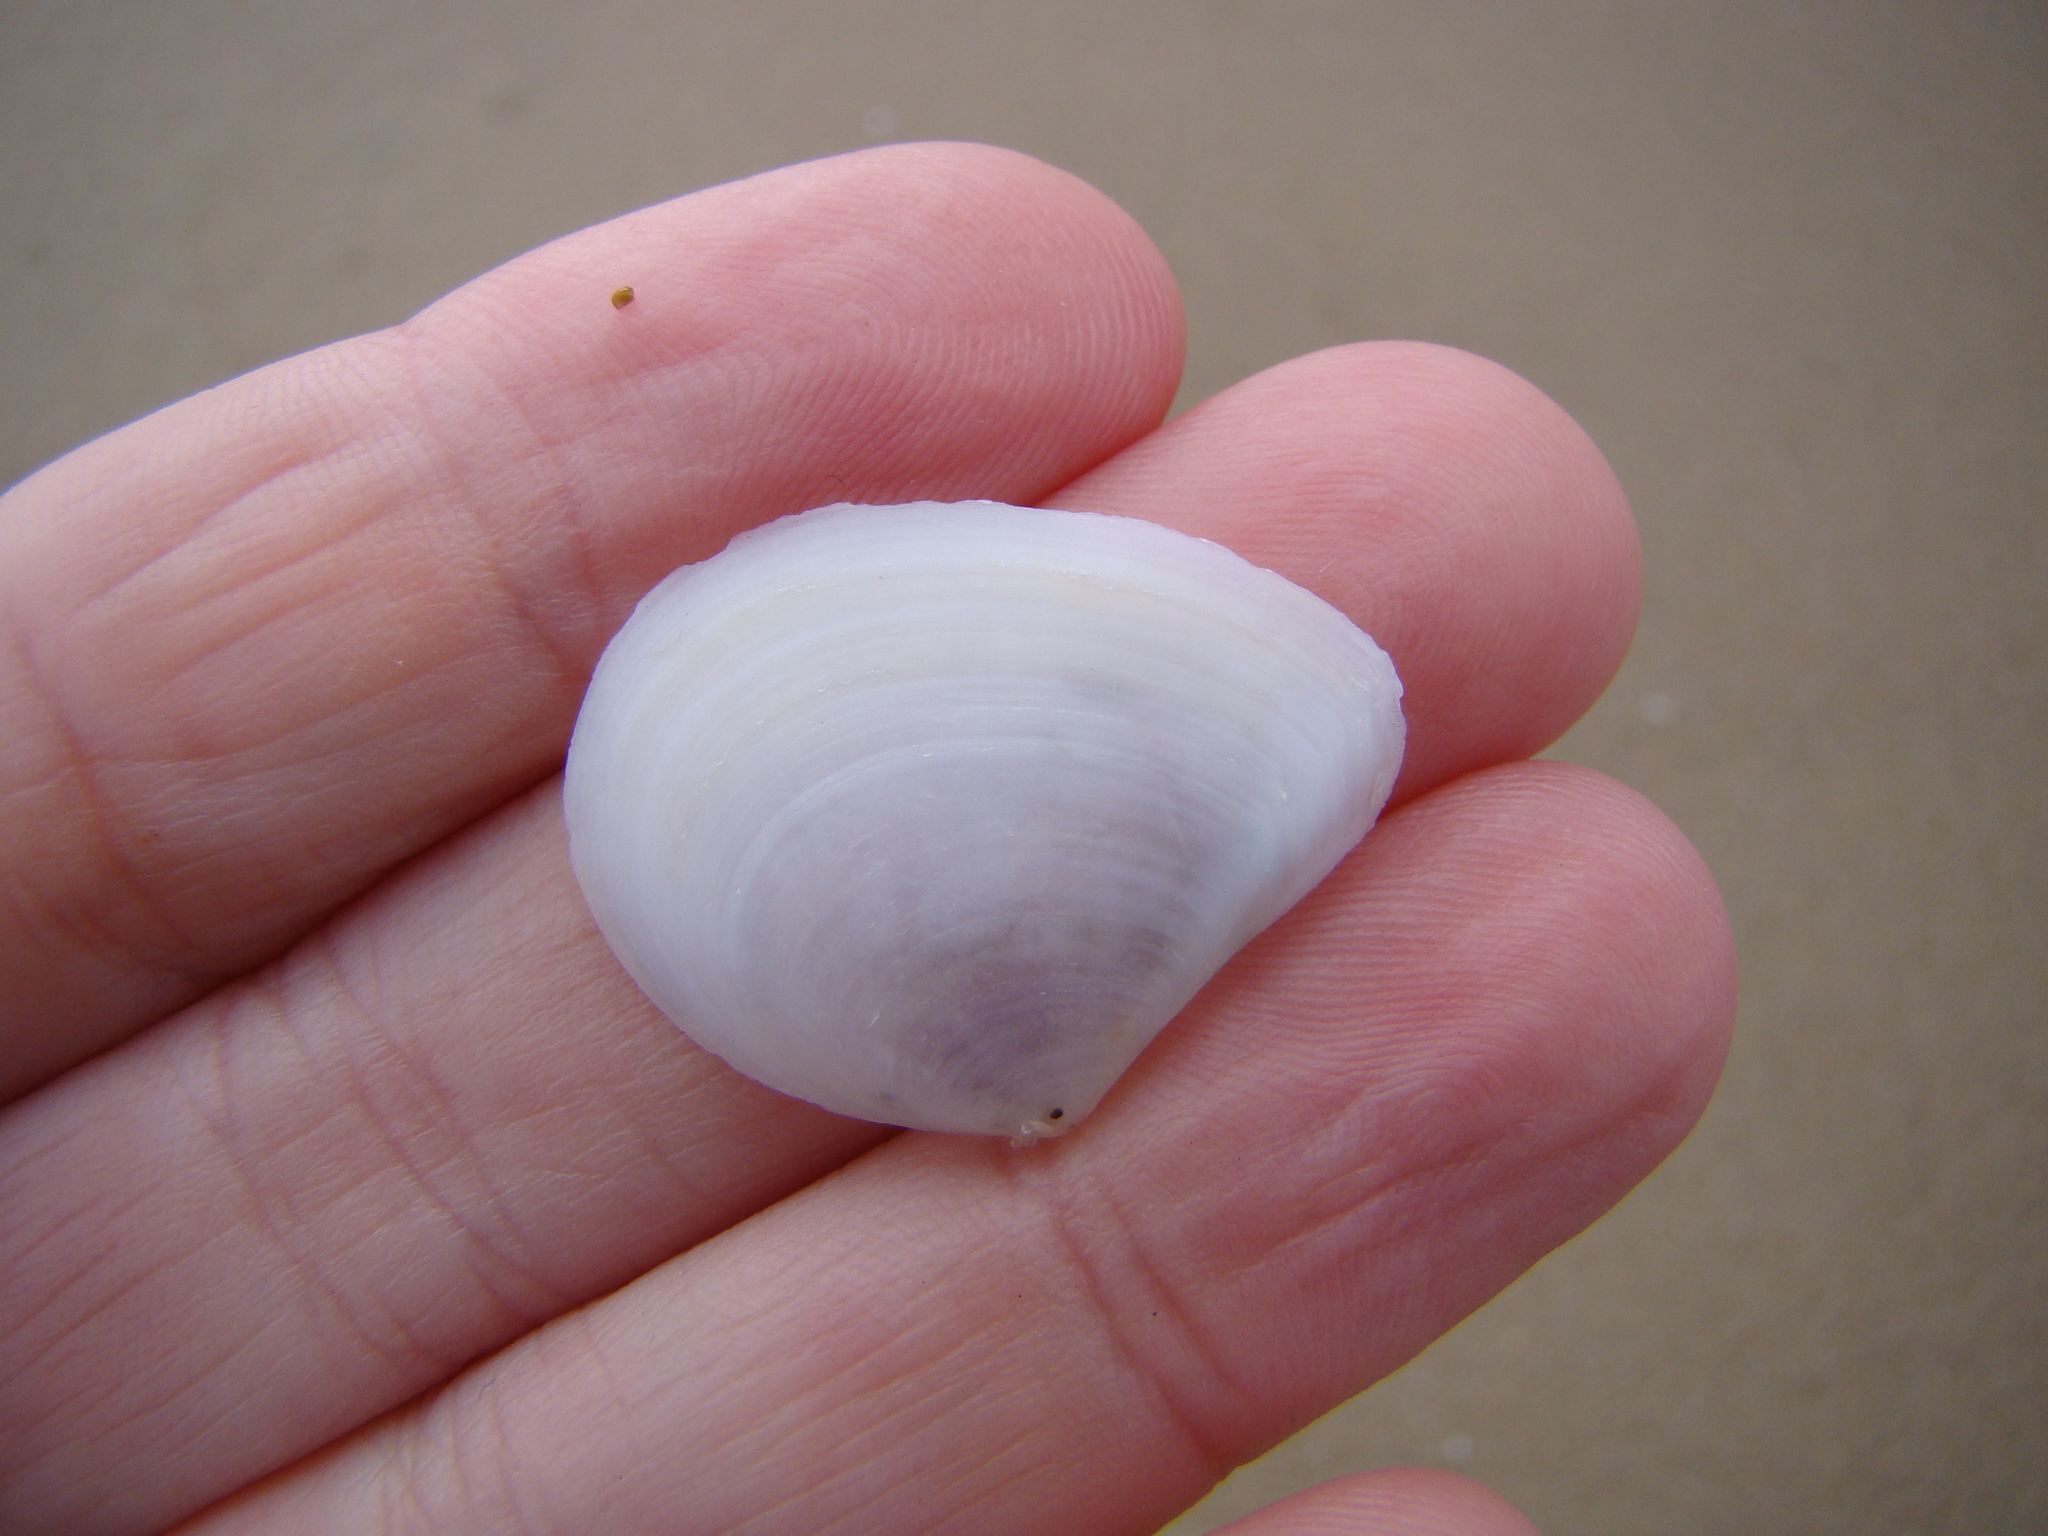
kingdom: Animalia
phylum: Mollusca
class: Bivalvia
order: Cardiida
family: Tellinidae
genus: Macomona
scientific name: Macomona liliana
